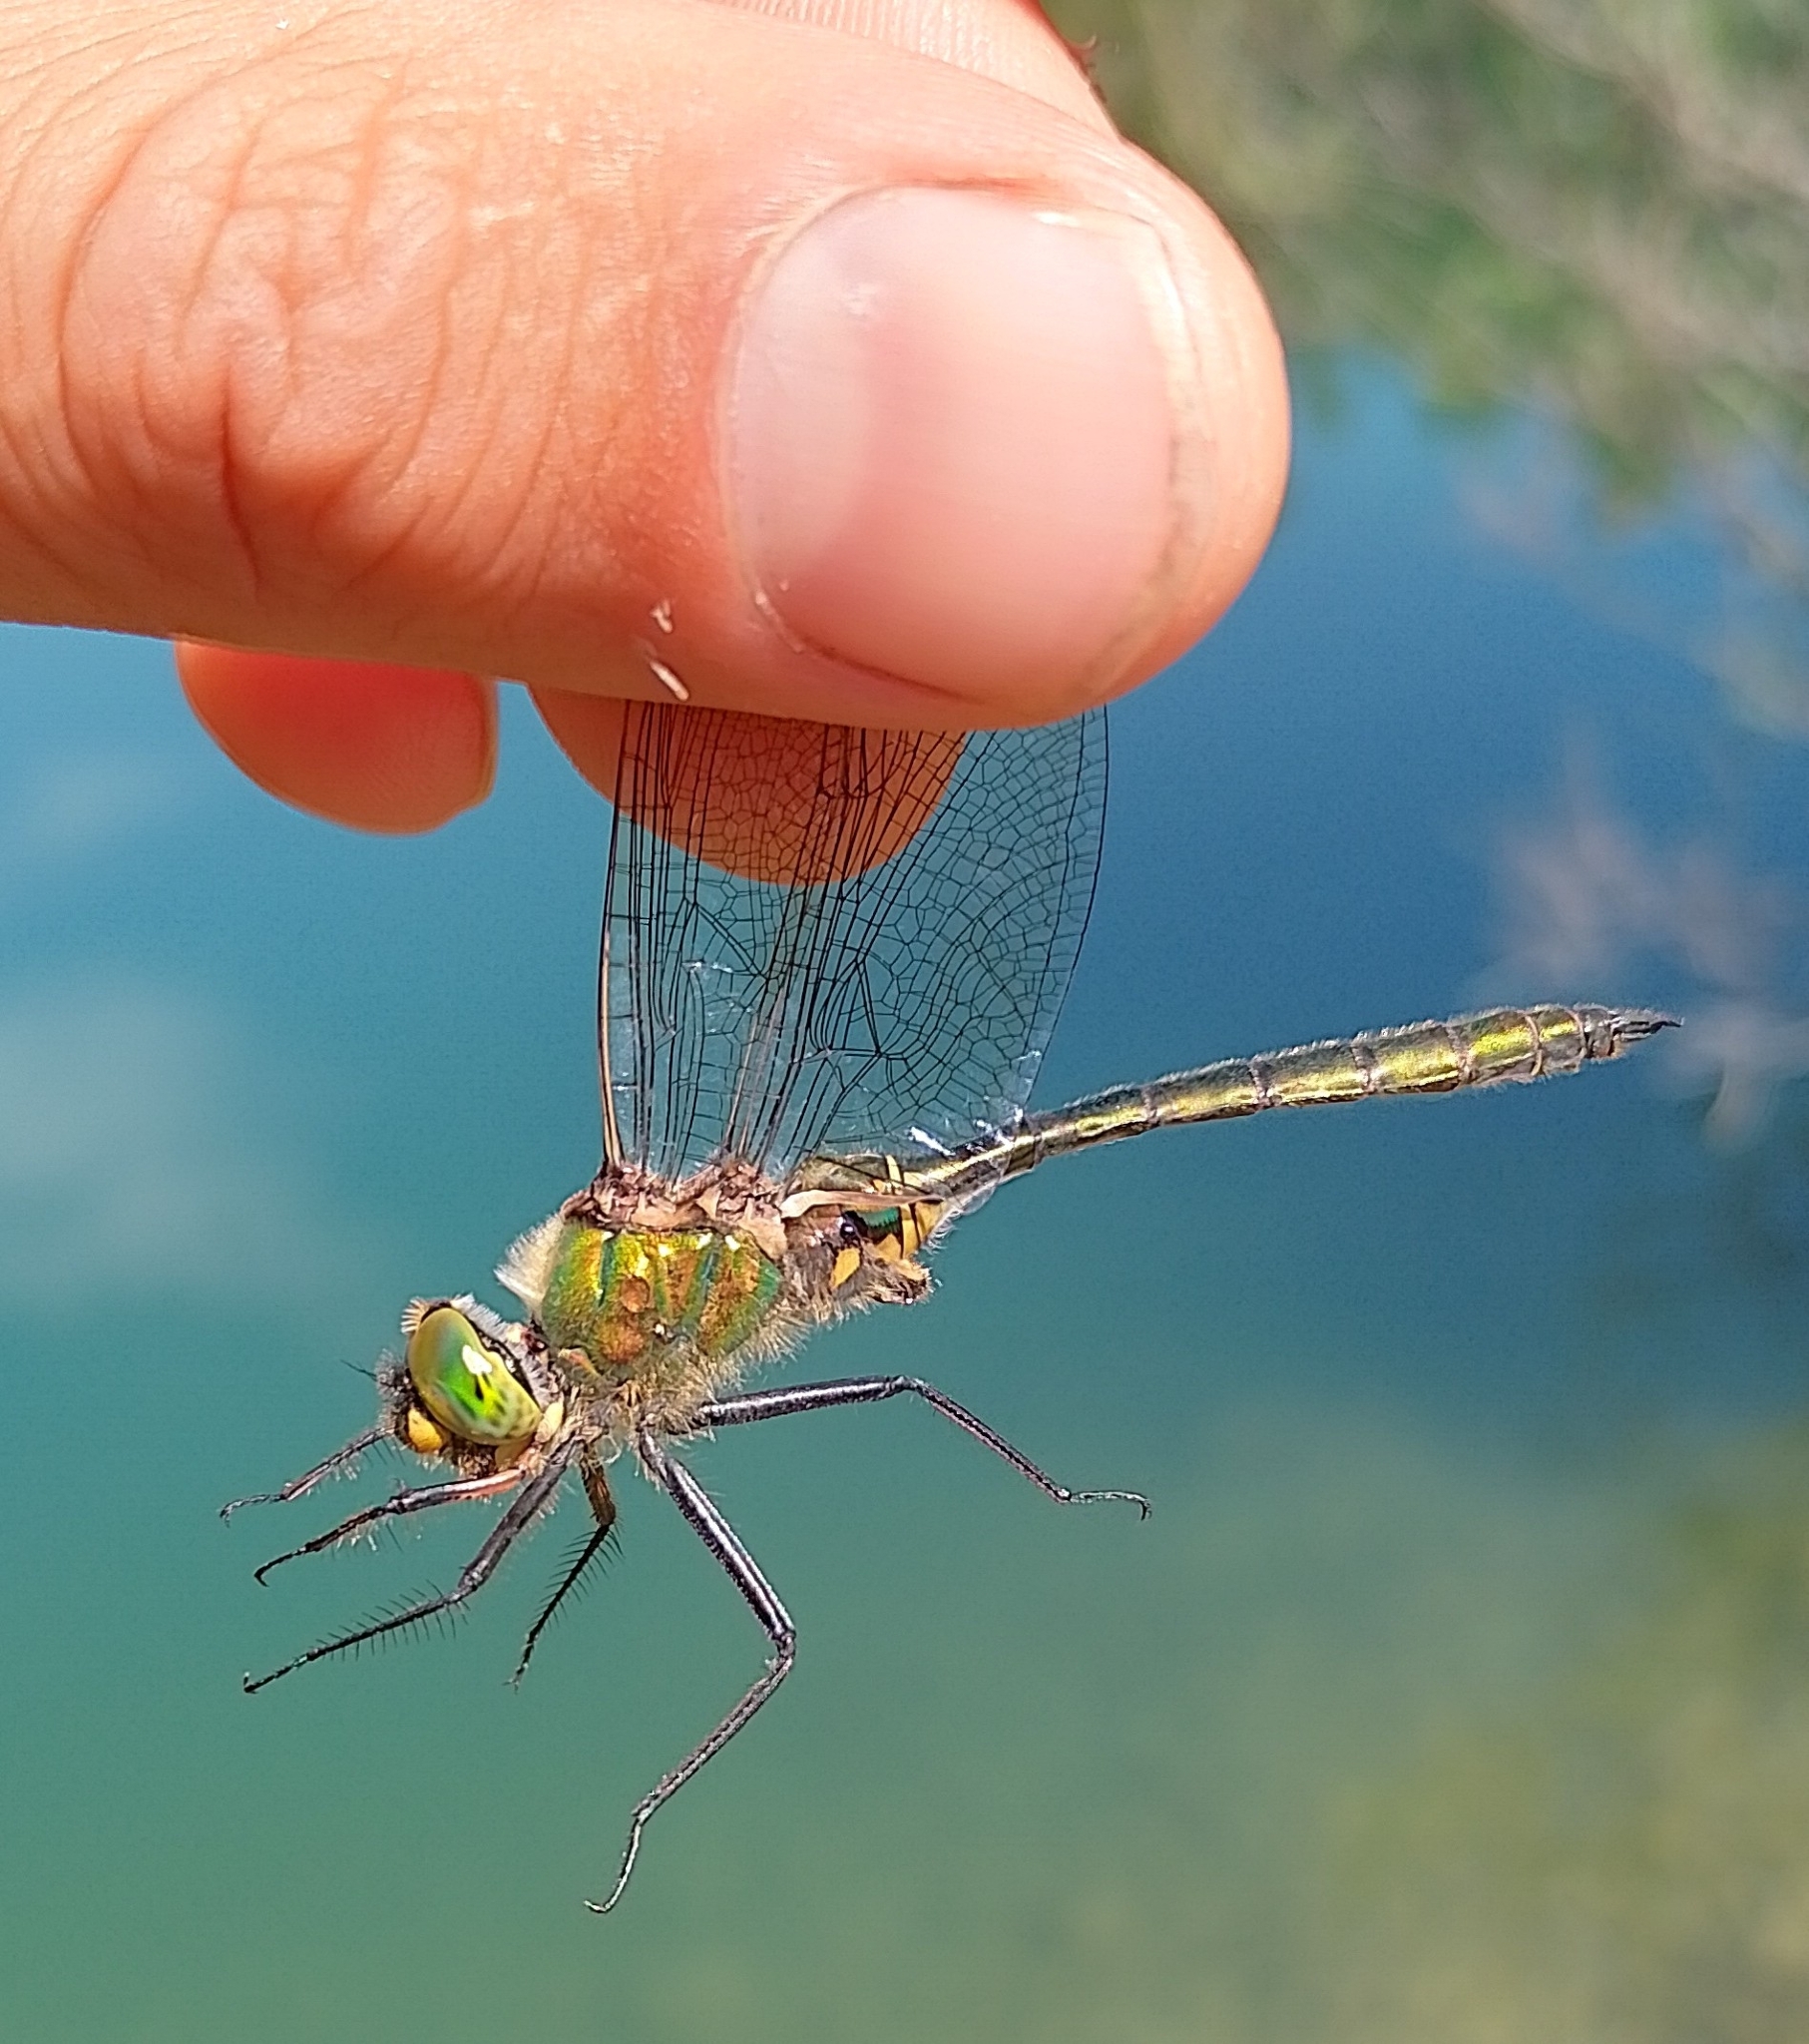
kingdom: Animalia
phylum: Arthropoda
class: Insecta
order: Odonata
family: Corduliidae
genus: Somatochlora
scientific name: Somatochlora metallica
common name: Brilliant emerald
